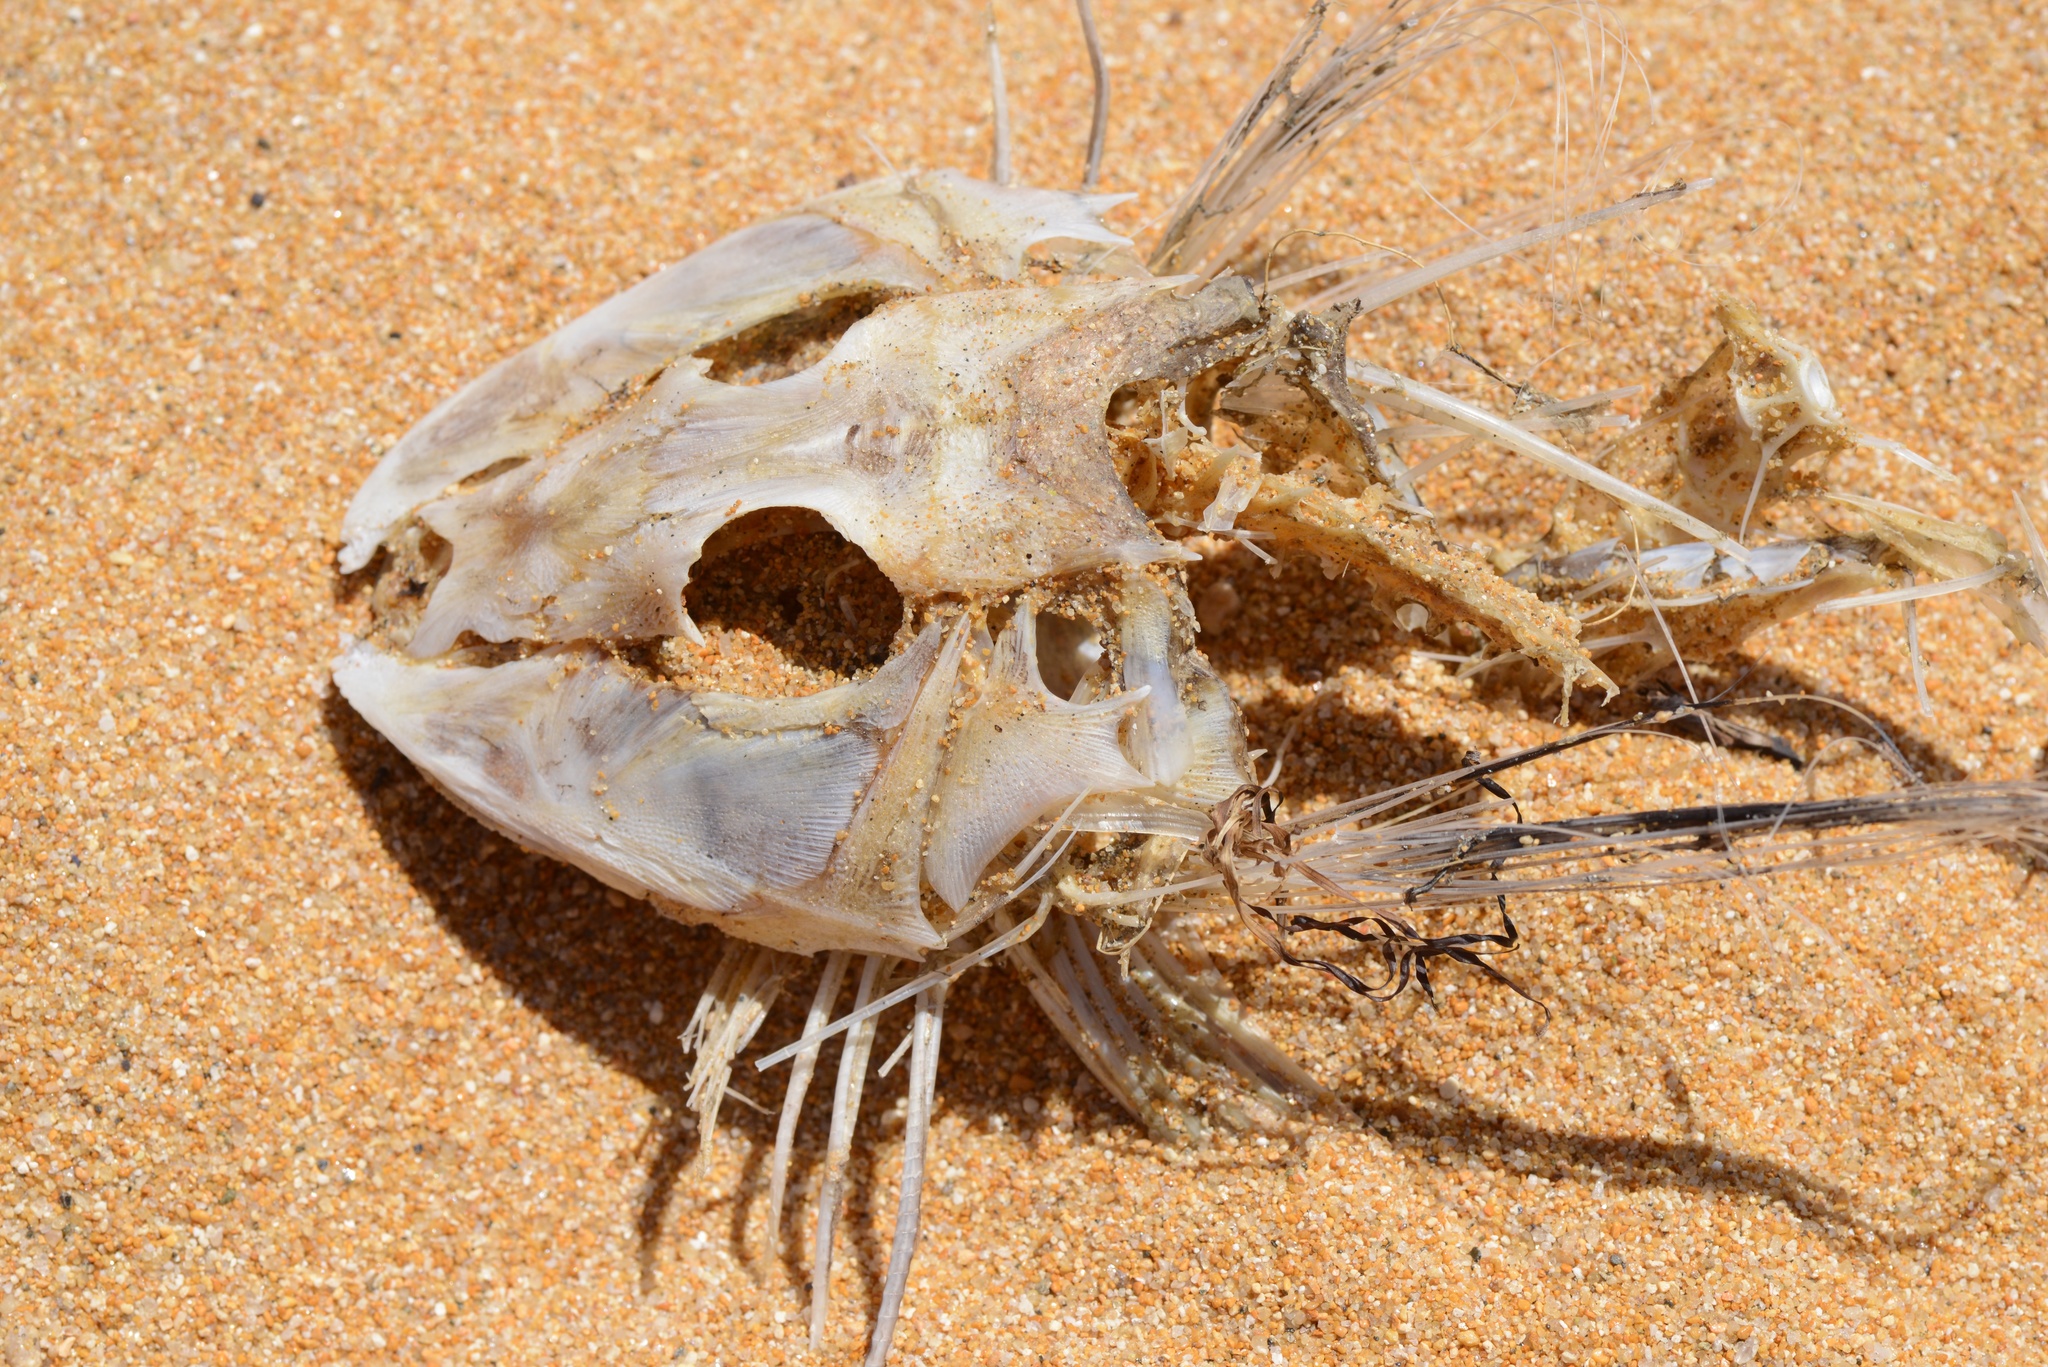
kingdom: Animalia
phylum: Chordata
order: Scorpaeniformes
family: Triglidae
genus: Chelidonichthys
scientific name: Chelidonichthys kumu
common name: Bluefin gurnard
